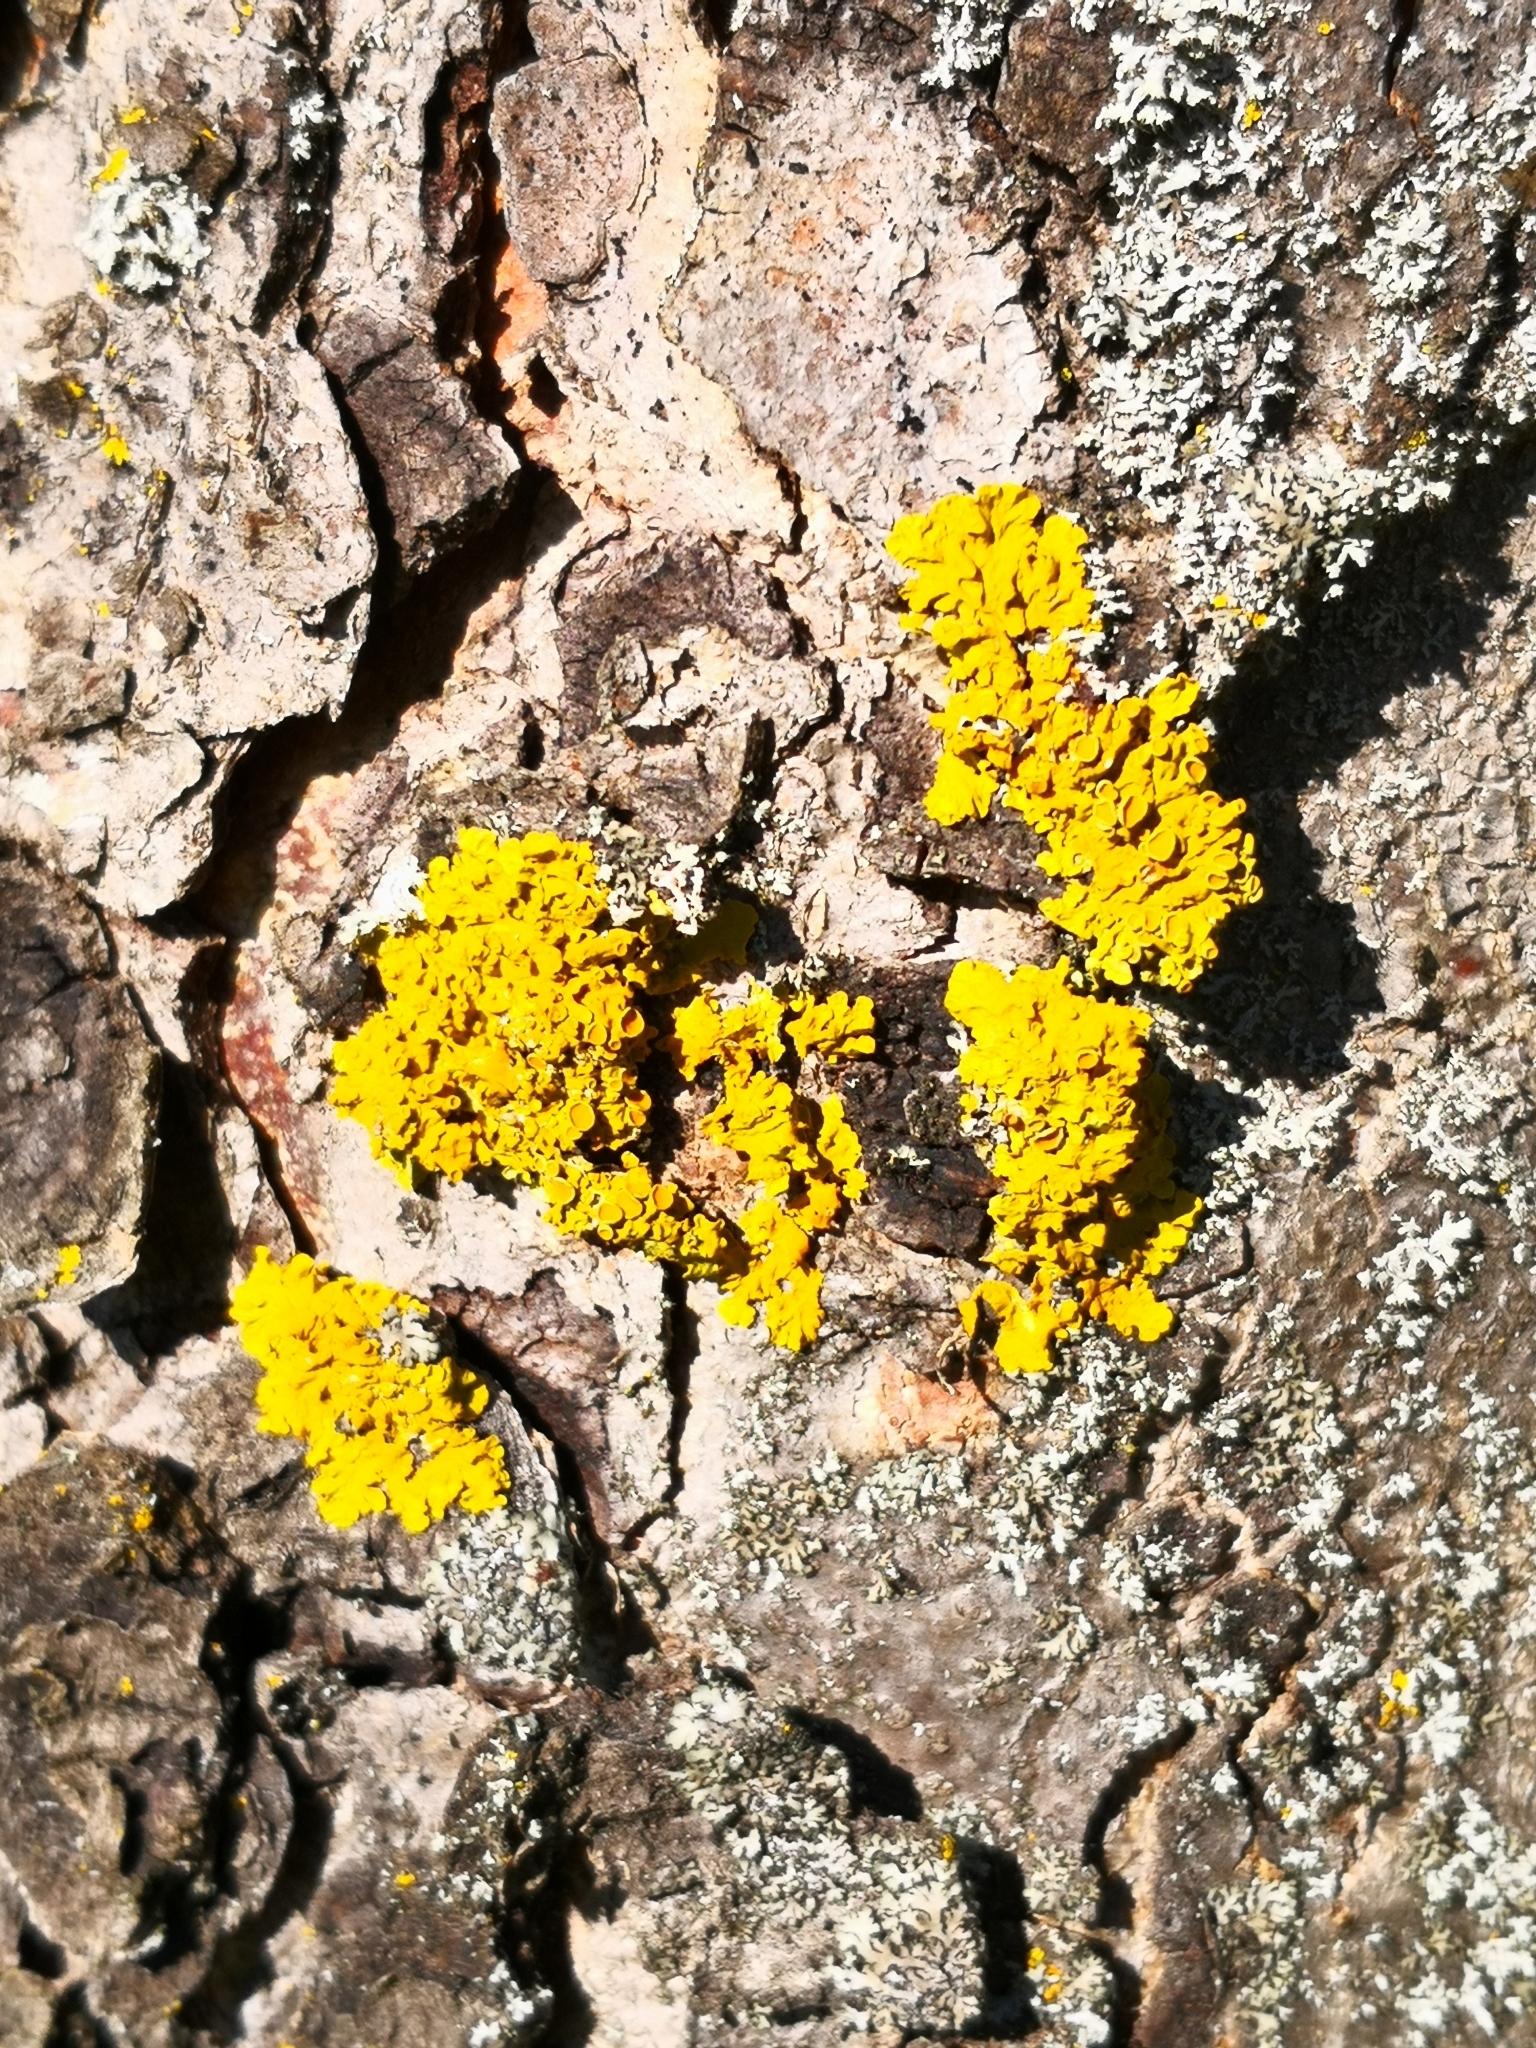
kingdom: Fungi
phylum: Ascomycota
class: Lecanoromycetes
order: Teloschistales
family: Teloschistaceae
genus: Xanthoria
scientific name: Xanthoria parietina
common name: Common orange lichen
